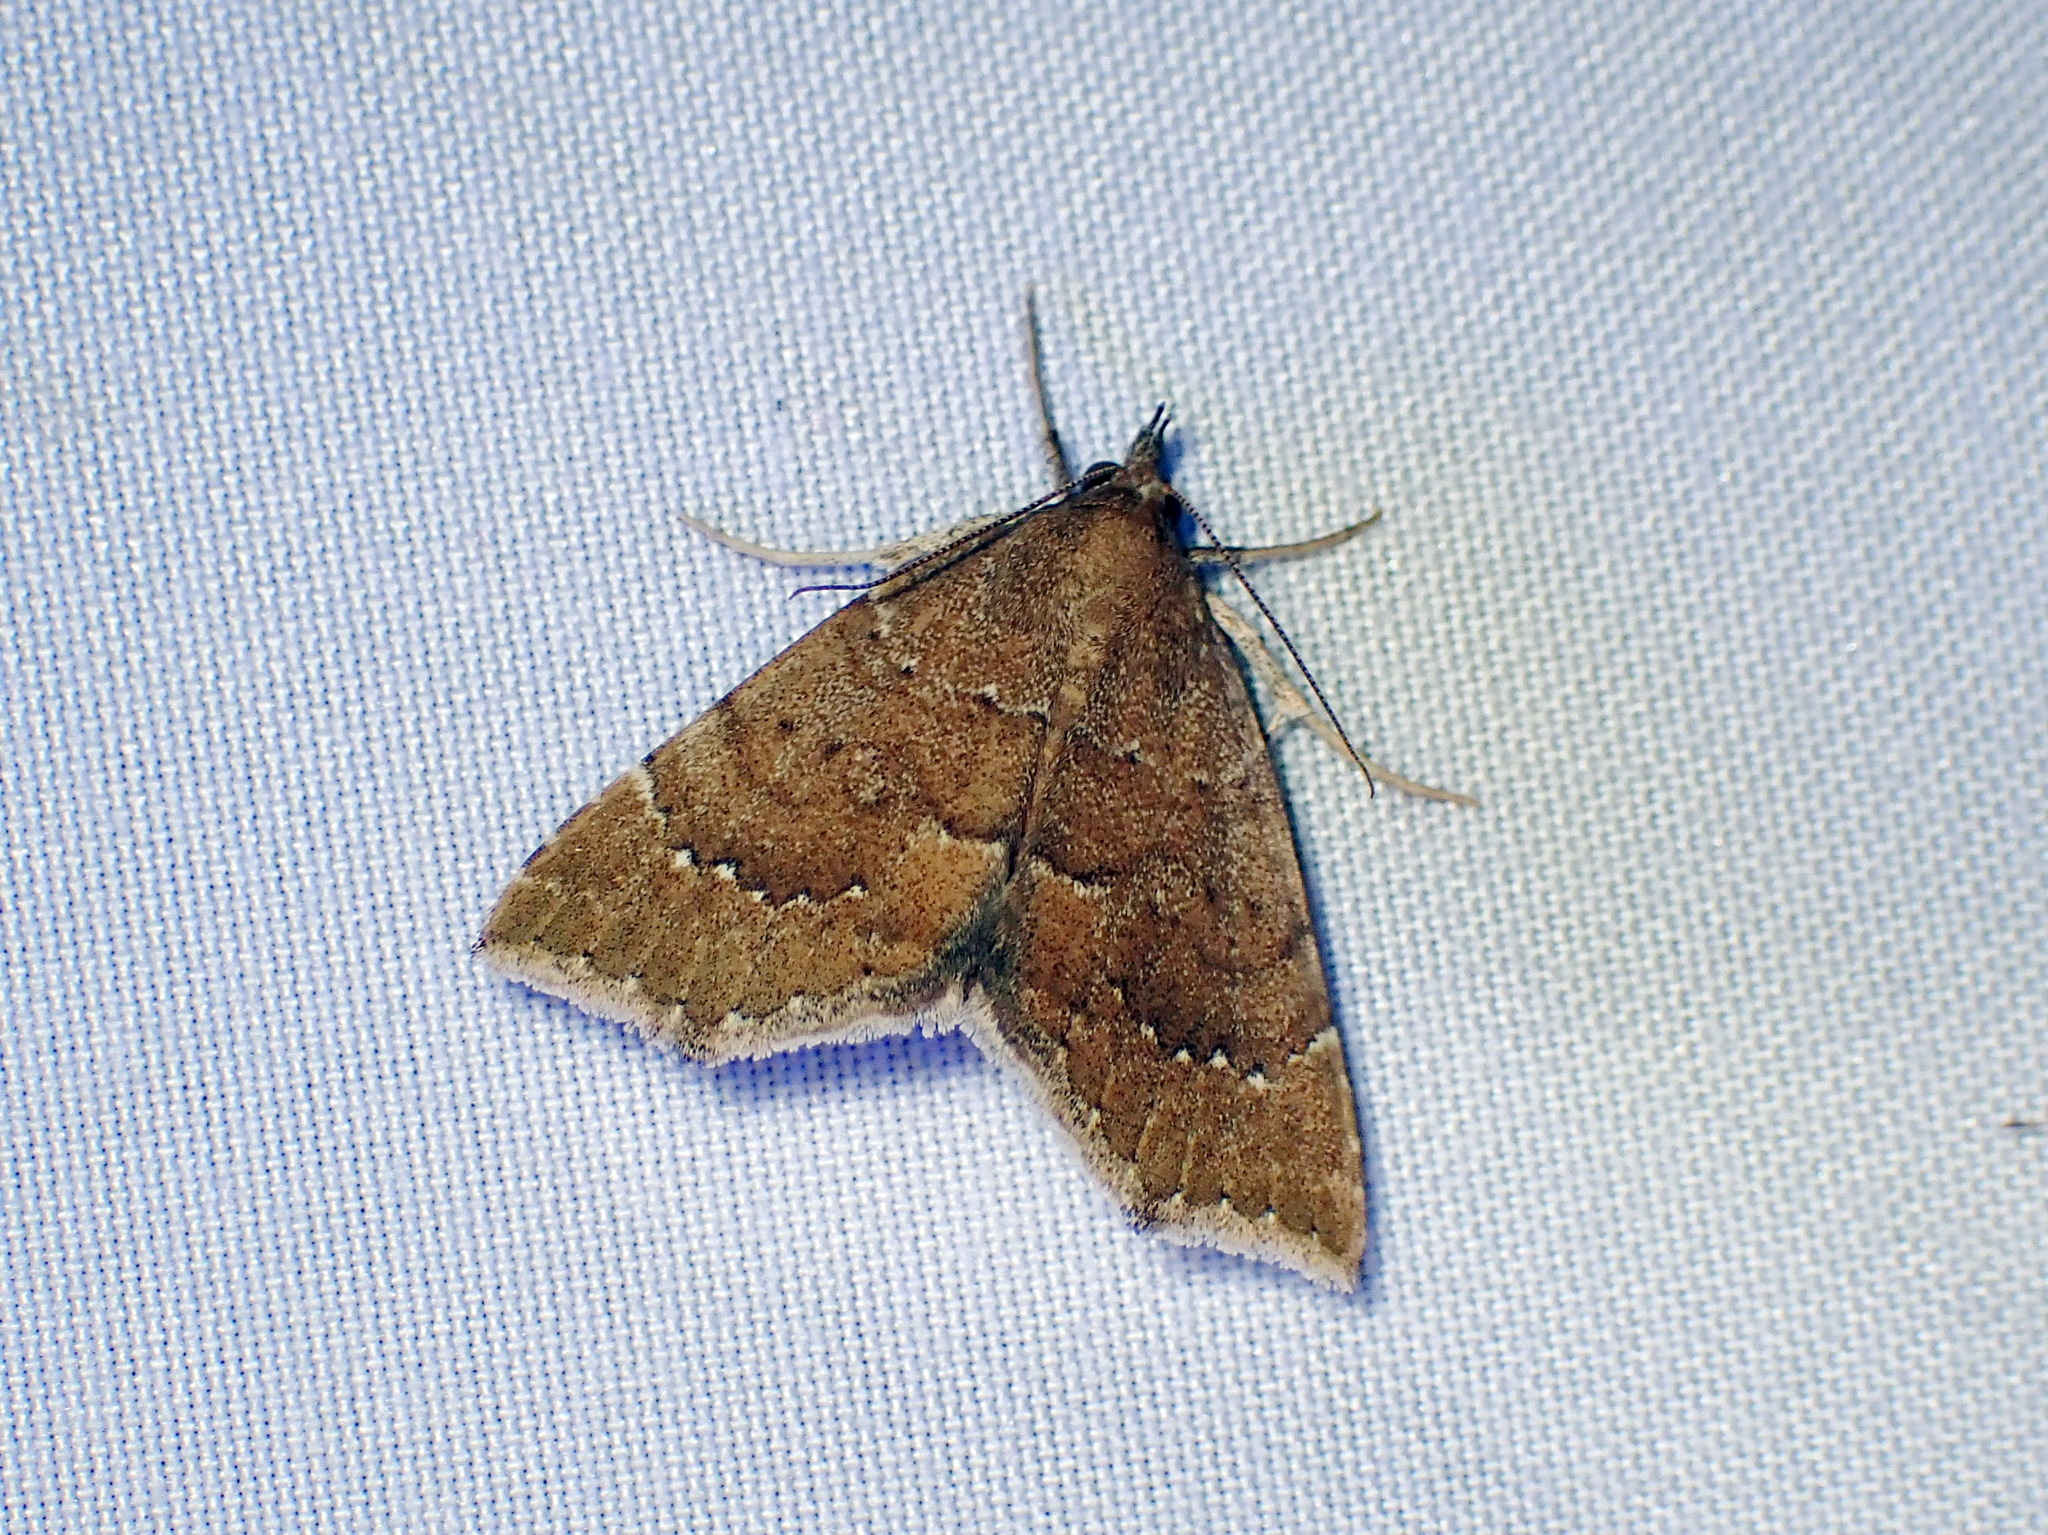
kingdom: Animalia
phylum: Arthropoda
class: Insecta
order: Lepidoptera
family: Erebidae
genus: Focillidia
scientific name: Focillidia texana
